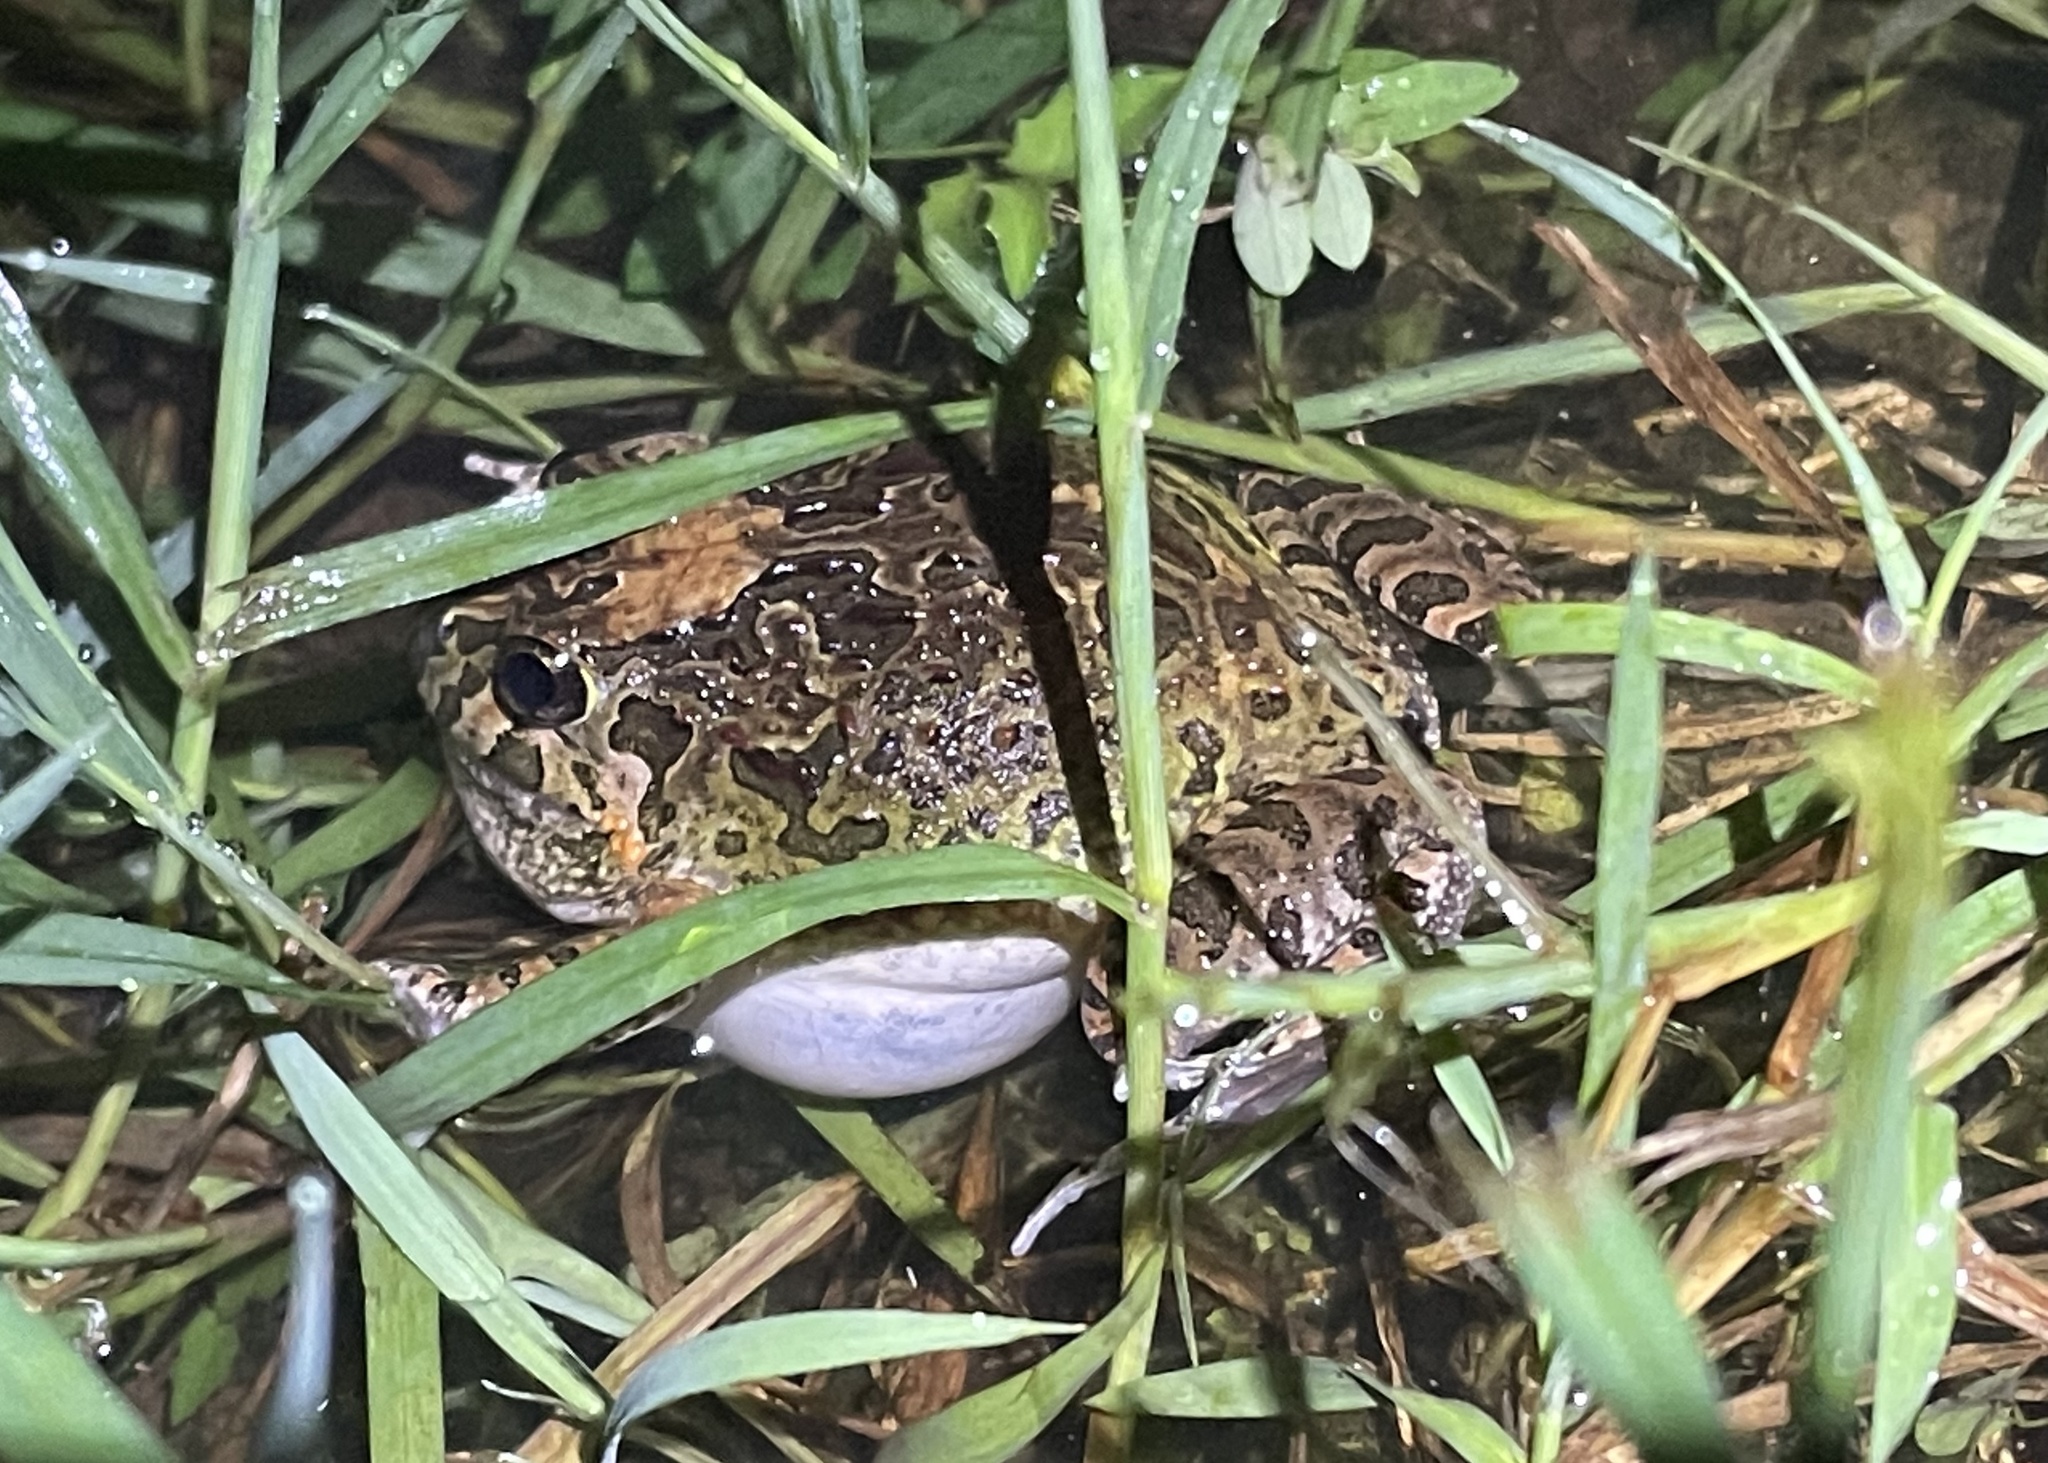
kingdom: Animalia
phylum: Chordata
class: Amphibia
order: Anura
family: Limnodynastidae
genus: Platyplectrum
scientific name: Platyplectrum ornatum
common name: Ornate burrowing frog
